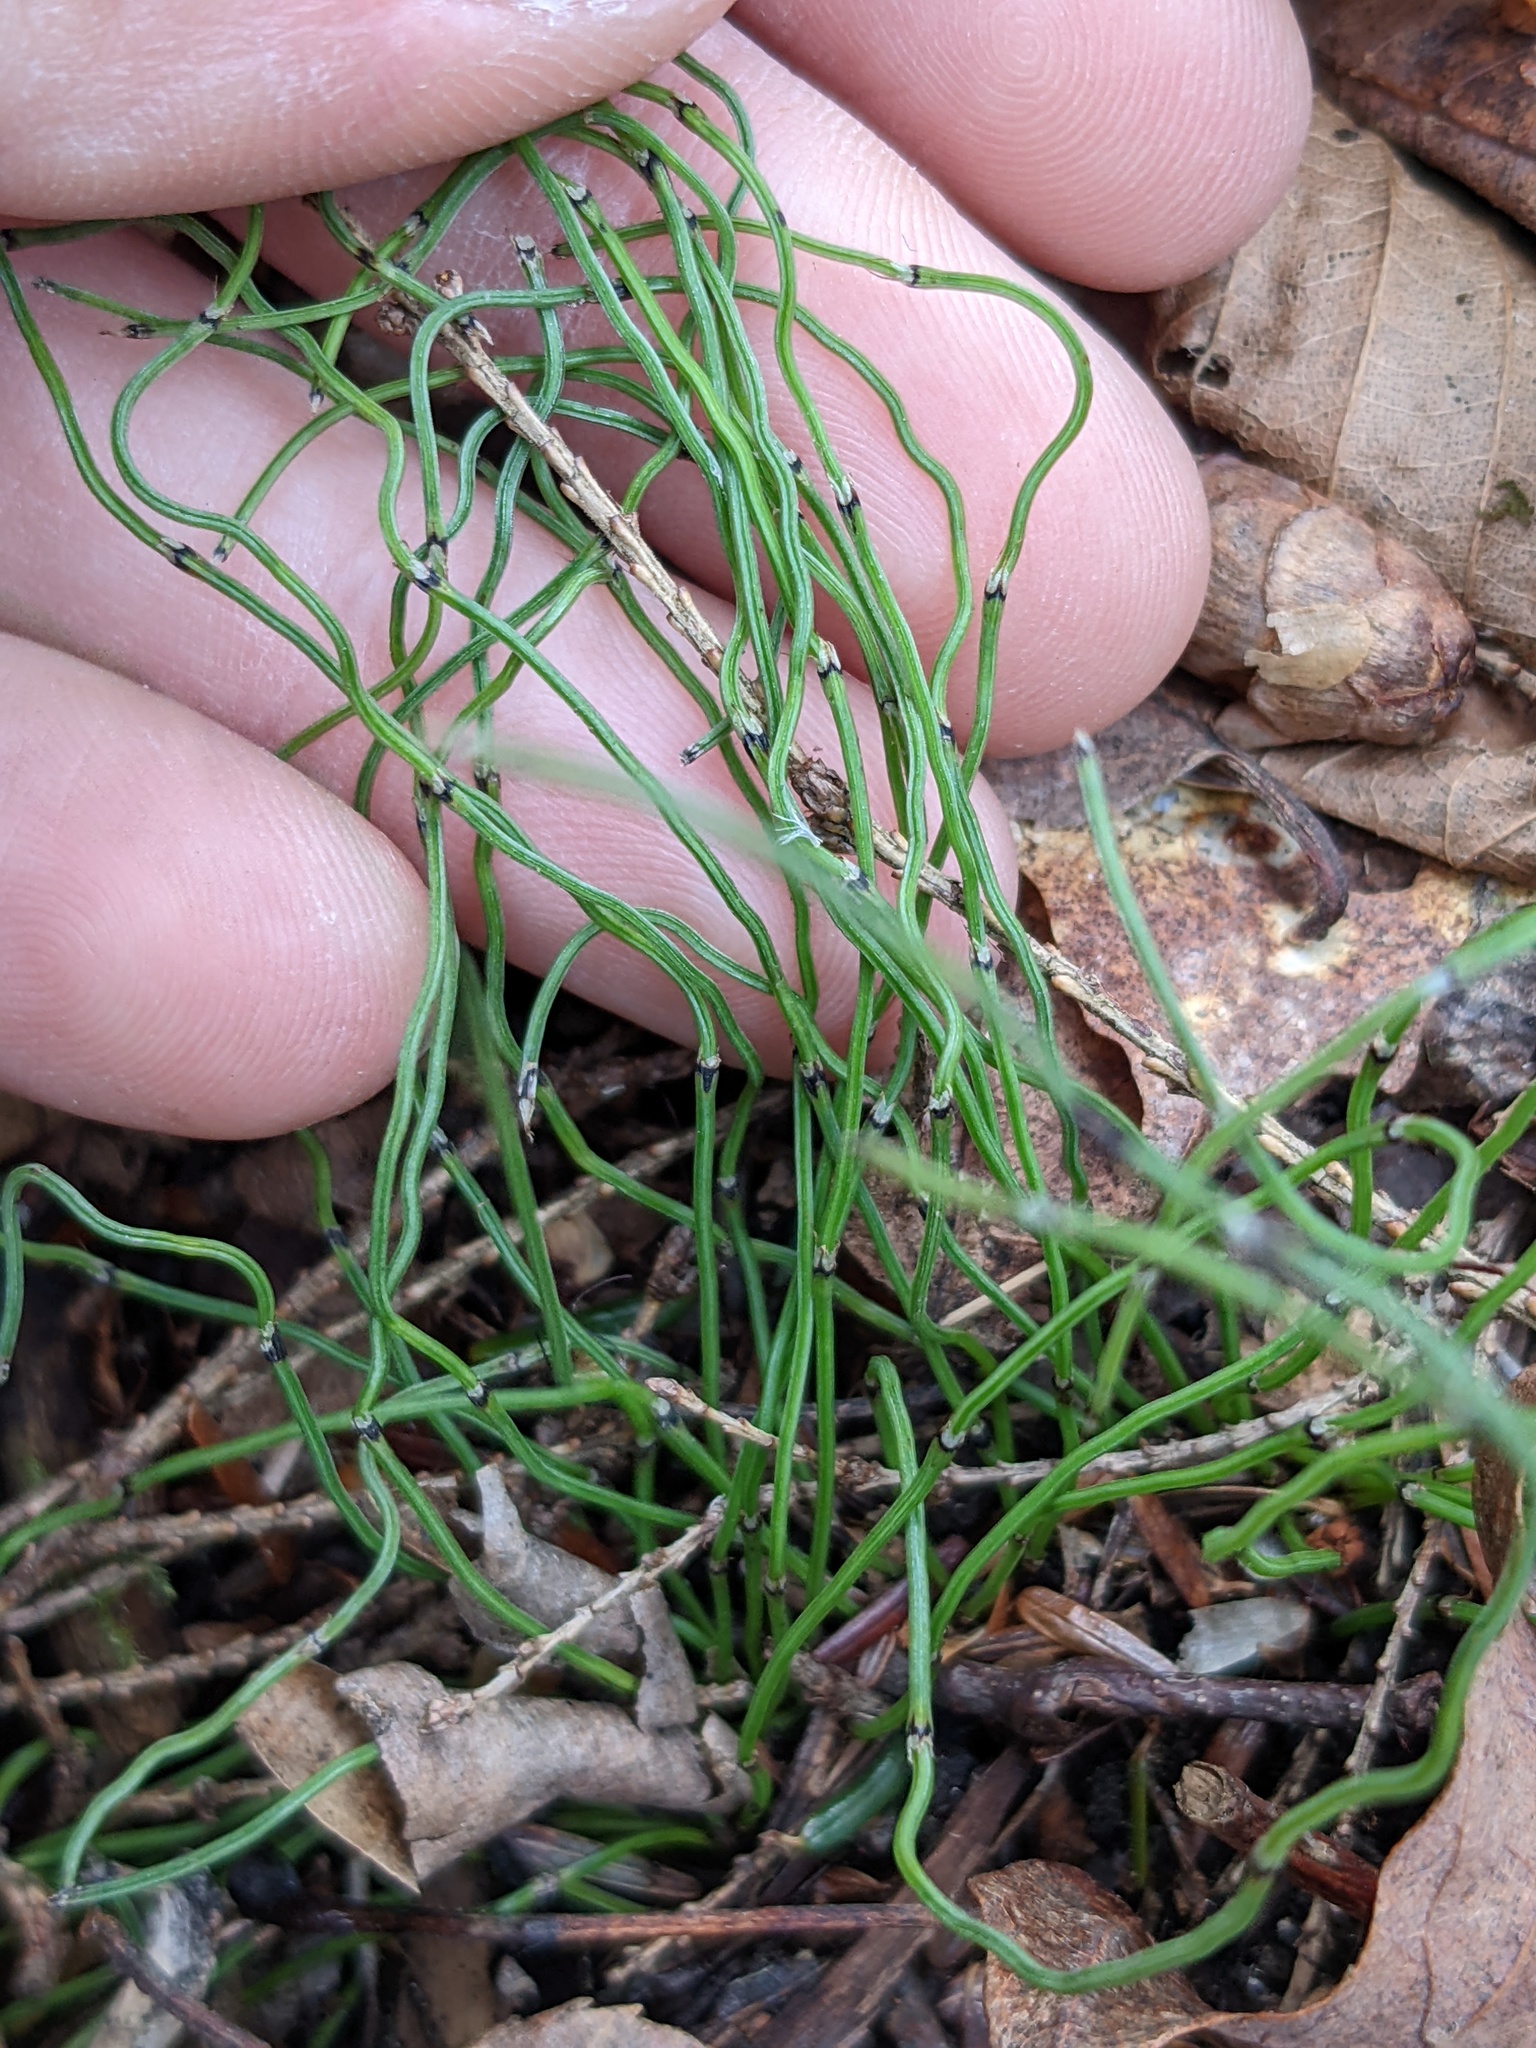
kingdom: Plantae
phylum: Tracheophyta
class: Polypodiopsida
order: Equisetales
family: Equisetaceae
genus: Equisetum
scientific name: Equisetum scirpoides
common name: Delicate horsetail
